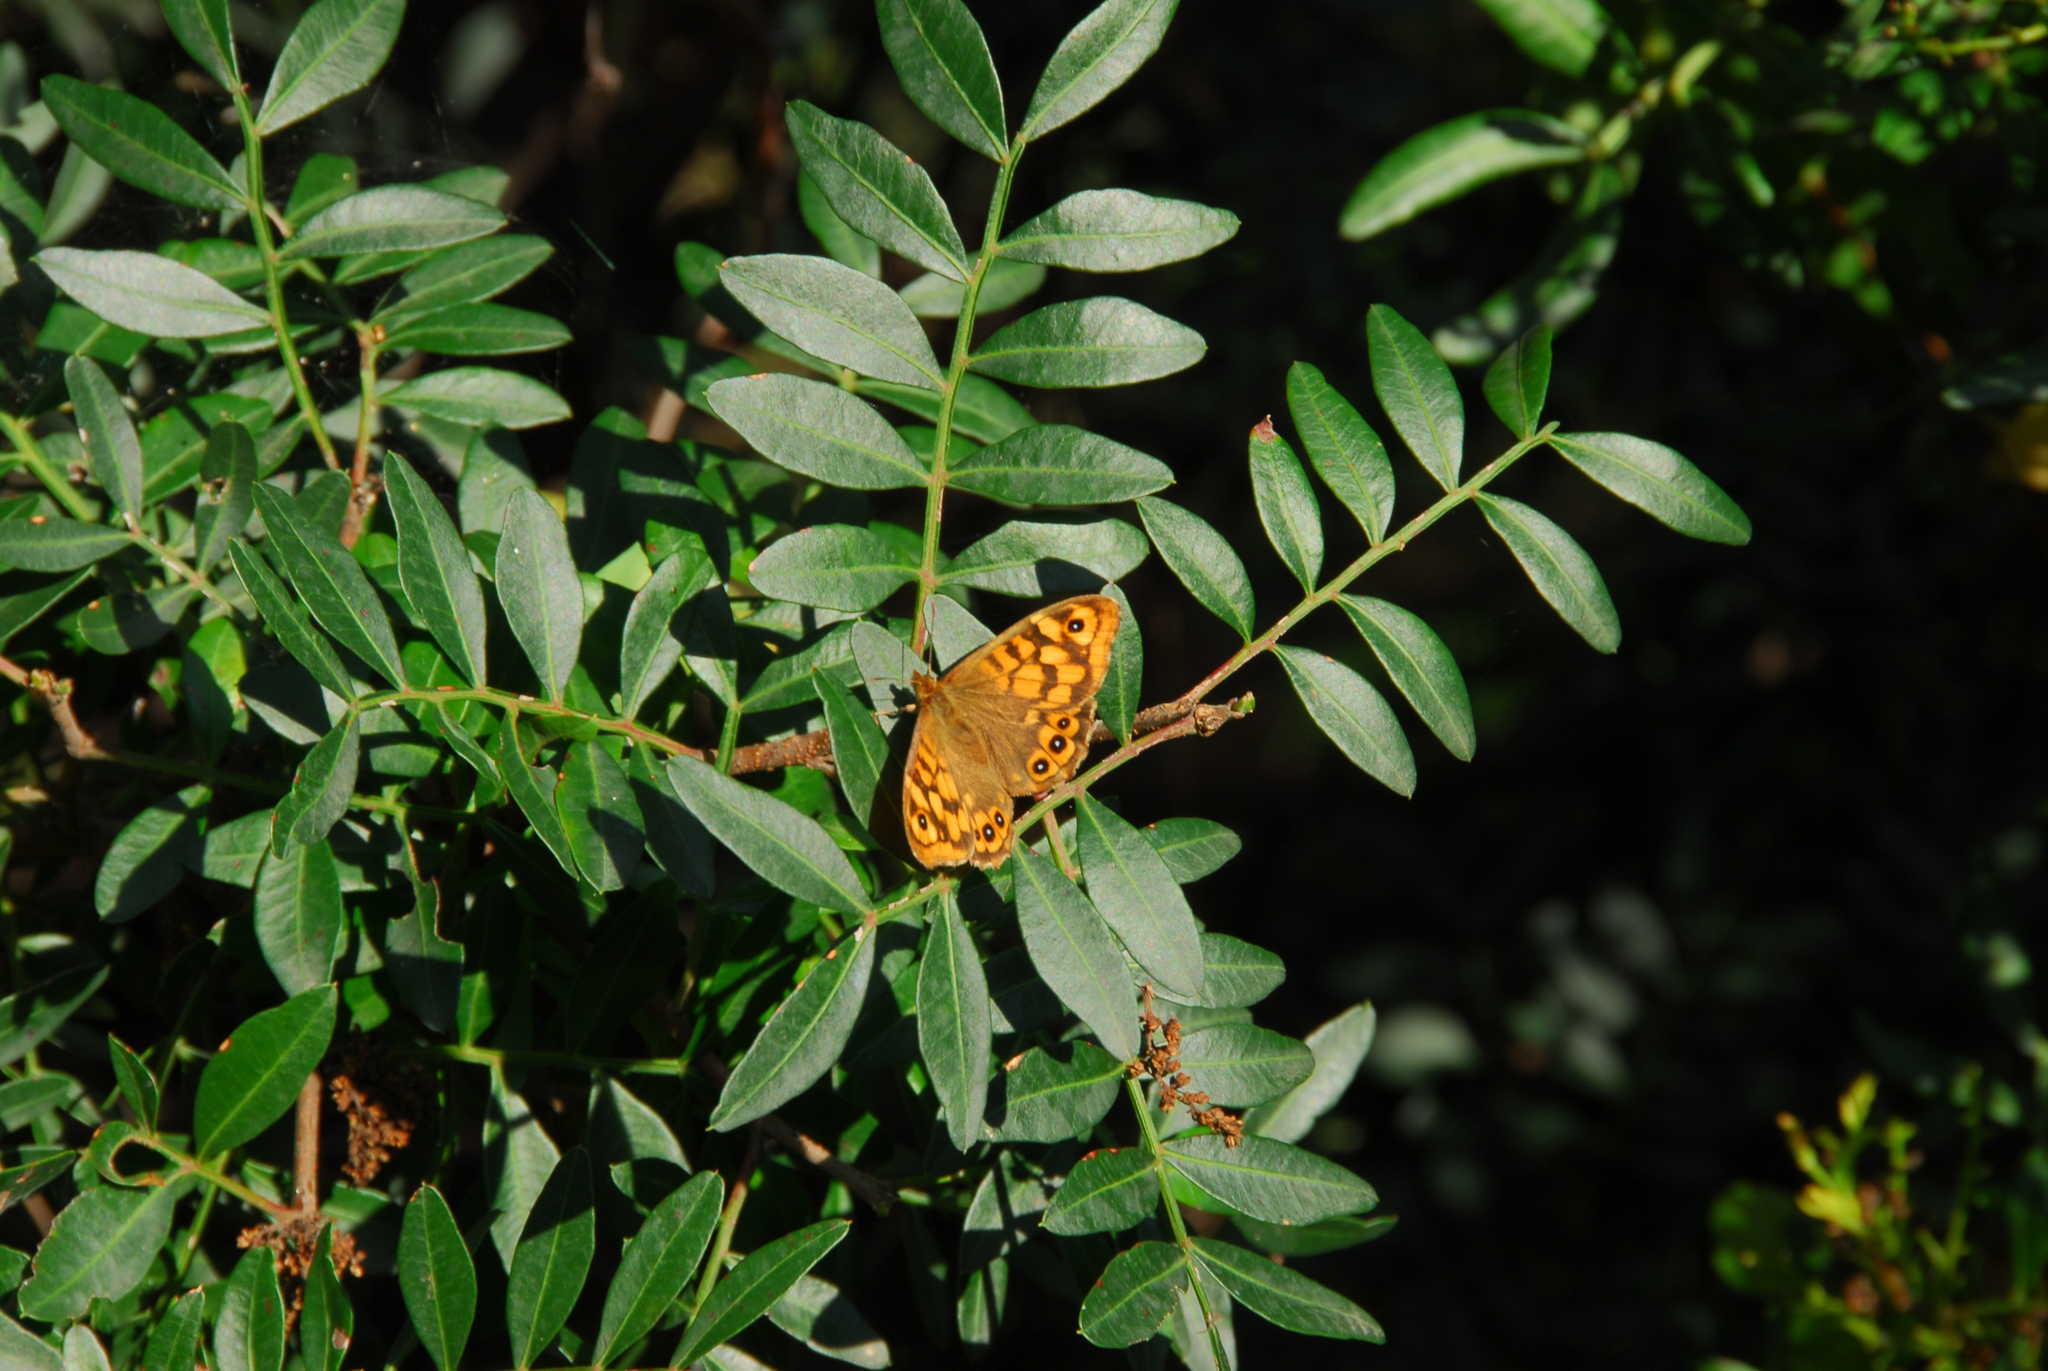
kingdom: Animalia
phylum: Arthropoda
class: Insecta
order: Lepidoptera
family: Nymphalidae
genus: Pararge
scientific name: Pararge aegeria
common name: Speckled wood
